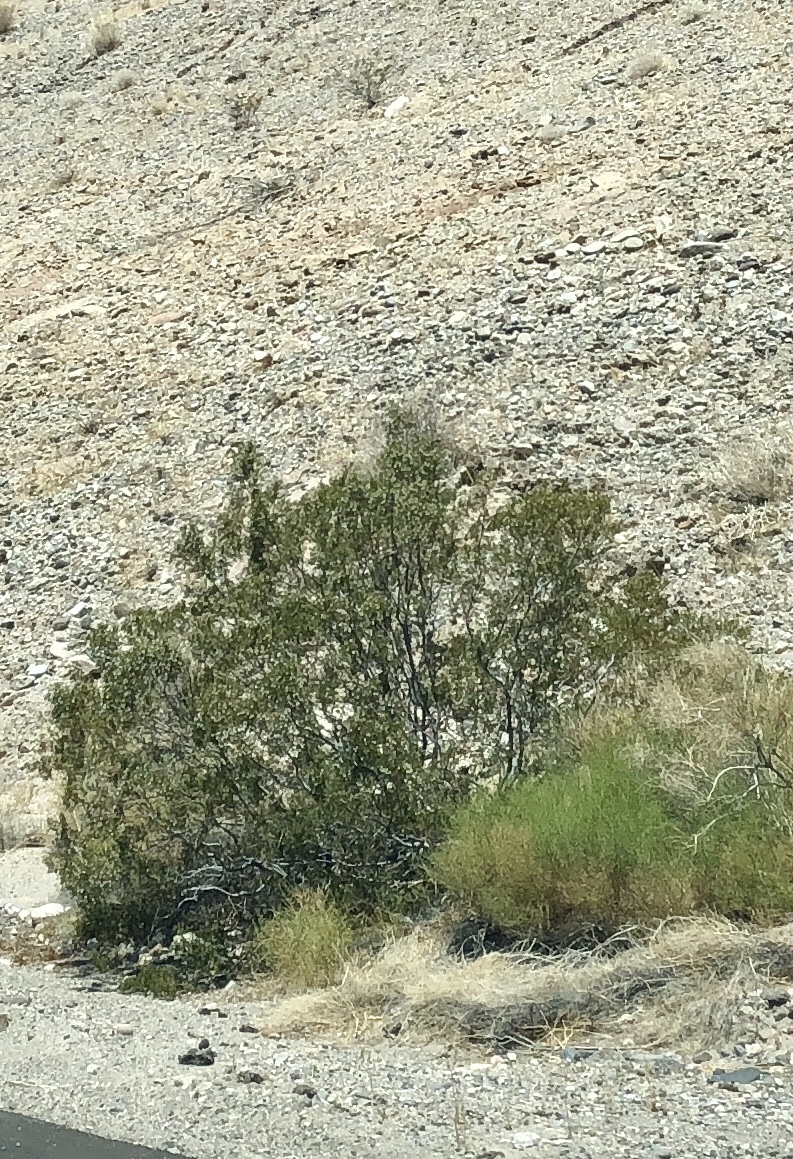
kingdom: Plantae
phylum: Tracheophyta
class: Magnoliopsida
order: Zygophyllales
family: Zygophyllaceae
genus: Larrea
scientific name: Larrea tridentata
